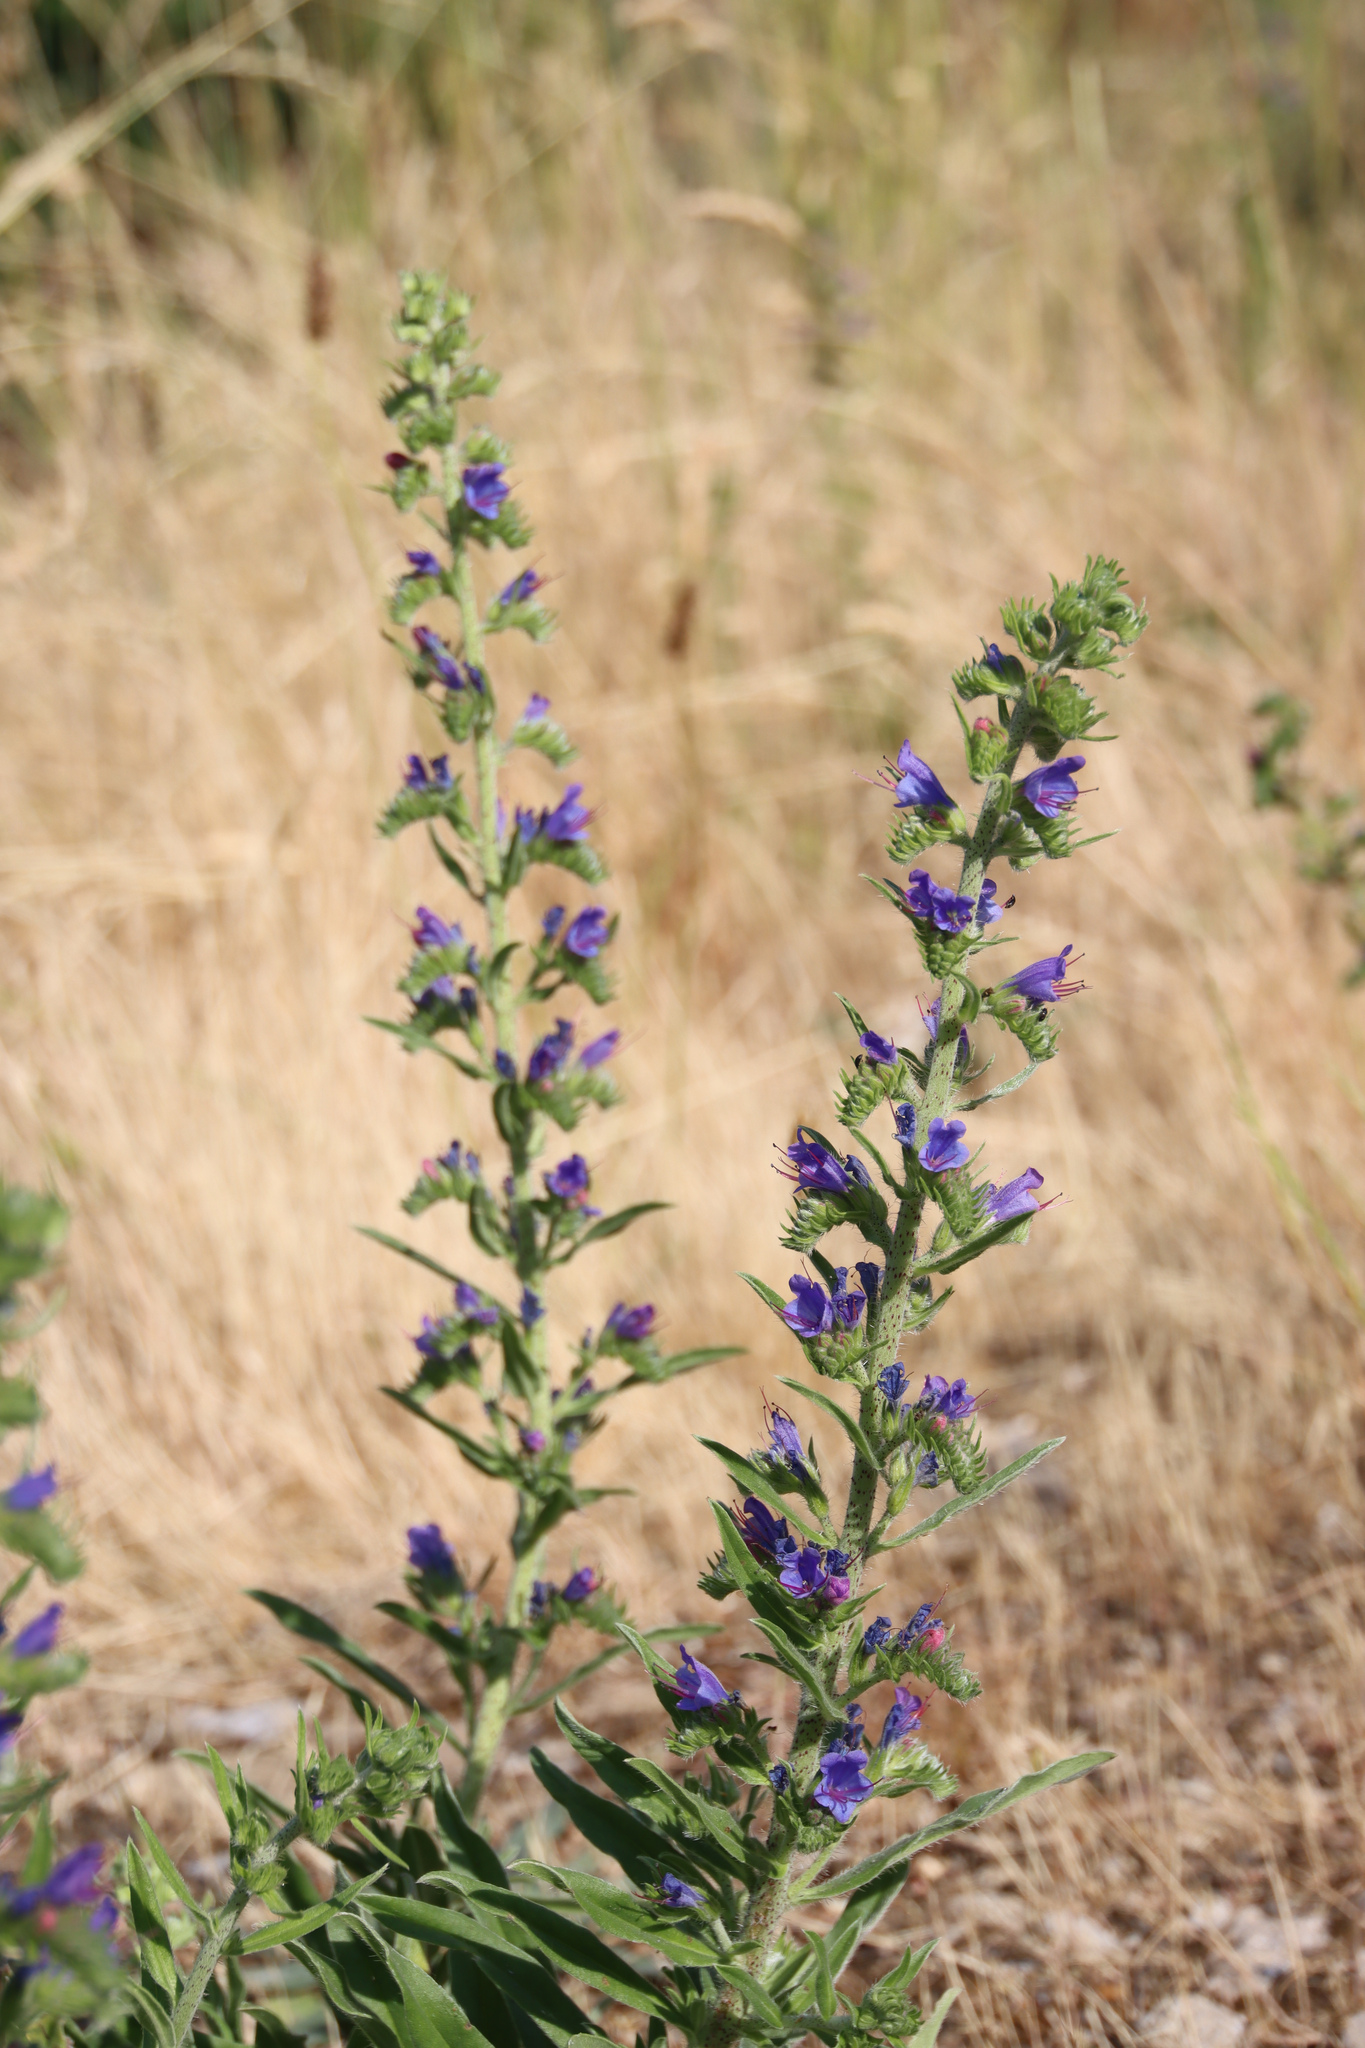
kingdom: Plantae
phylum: Tracheophyta
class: Magnoliopsida
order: Boraginales
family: Boraginaceae
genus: Echium
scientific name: Echium vulgare
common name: Common viper's bugloss
